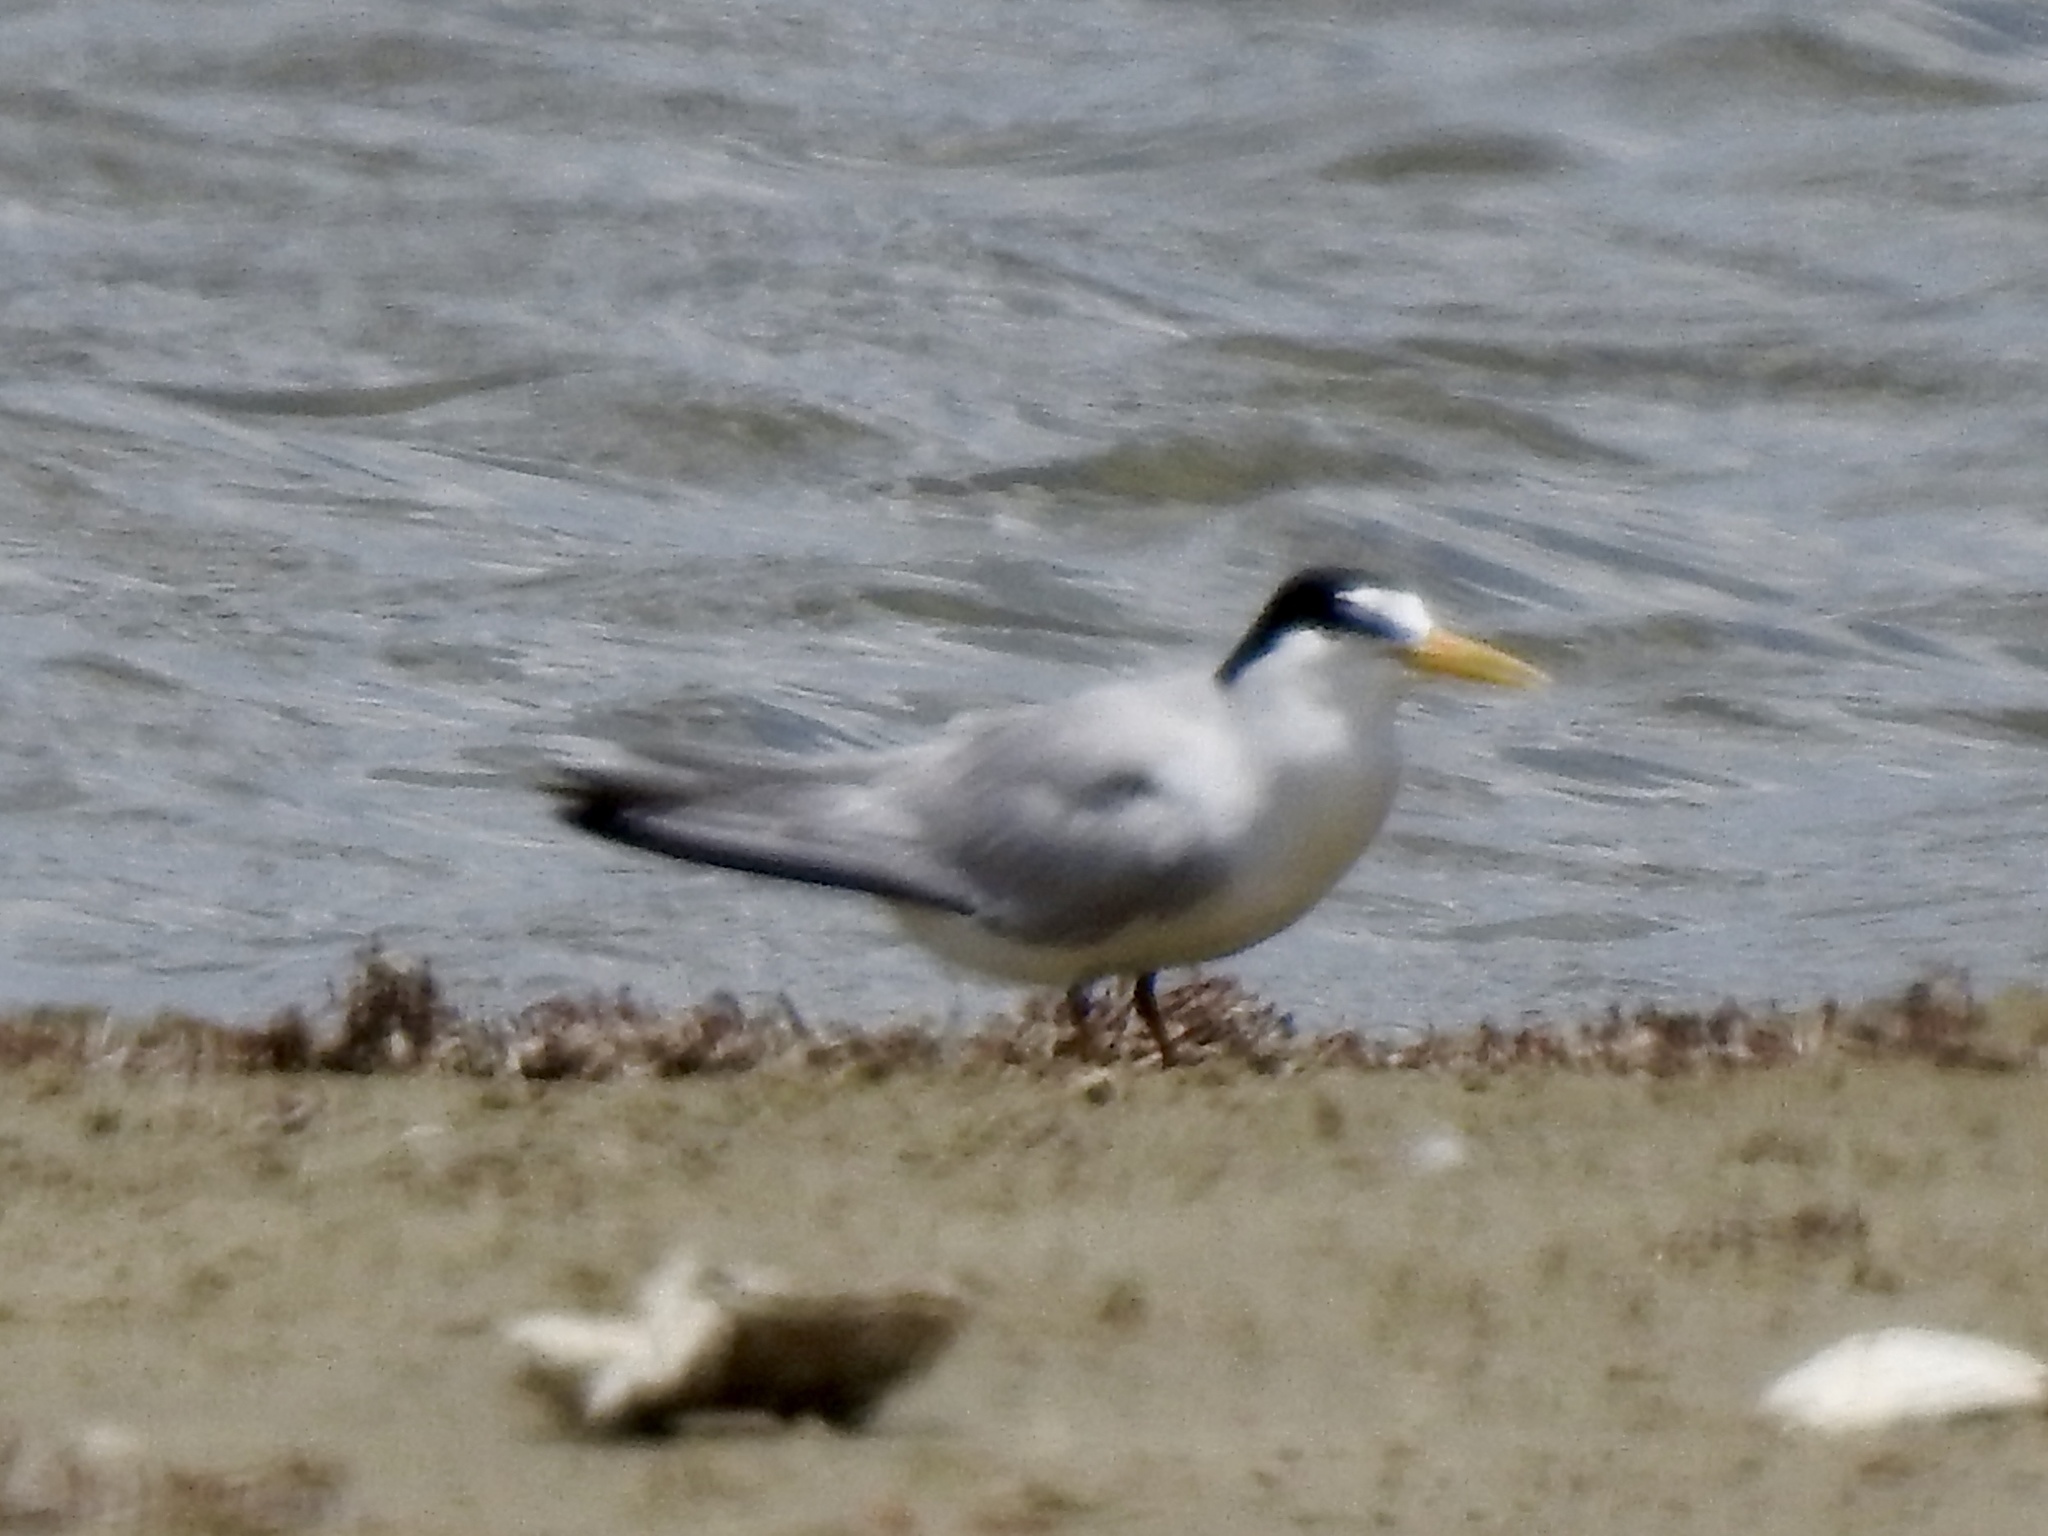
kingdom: Animalia
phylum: Chordata
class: Aves
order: Charadriiformes
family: Laridae
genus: Sternula
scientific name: Sternula antillarum
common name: Least tern
